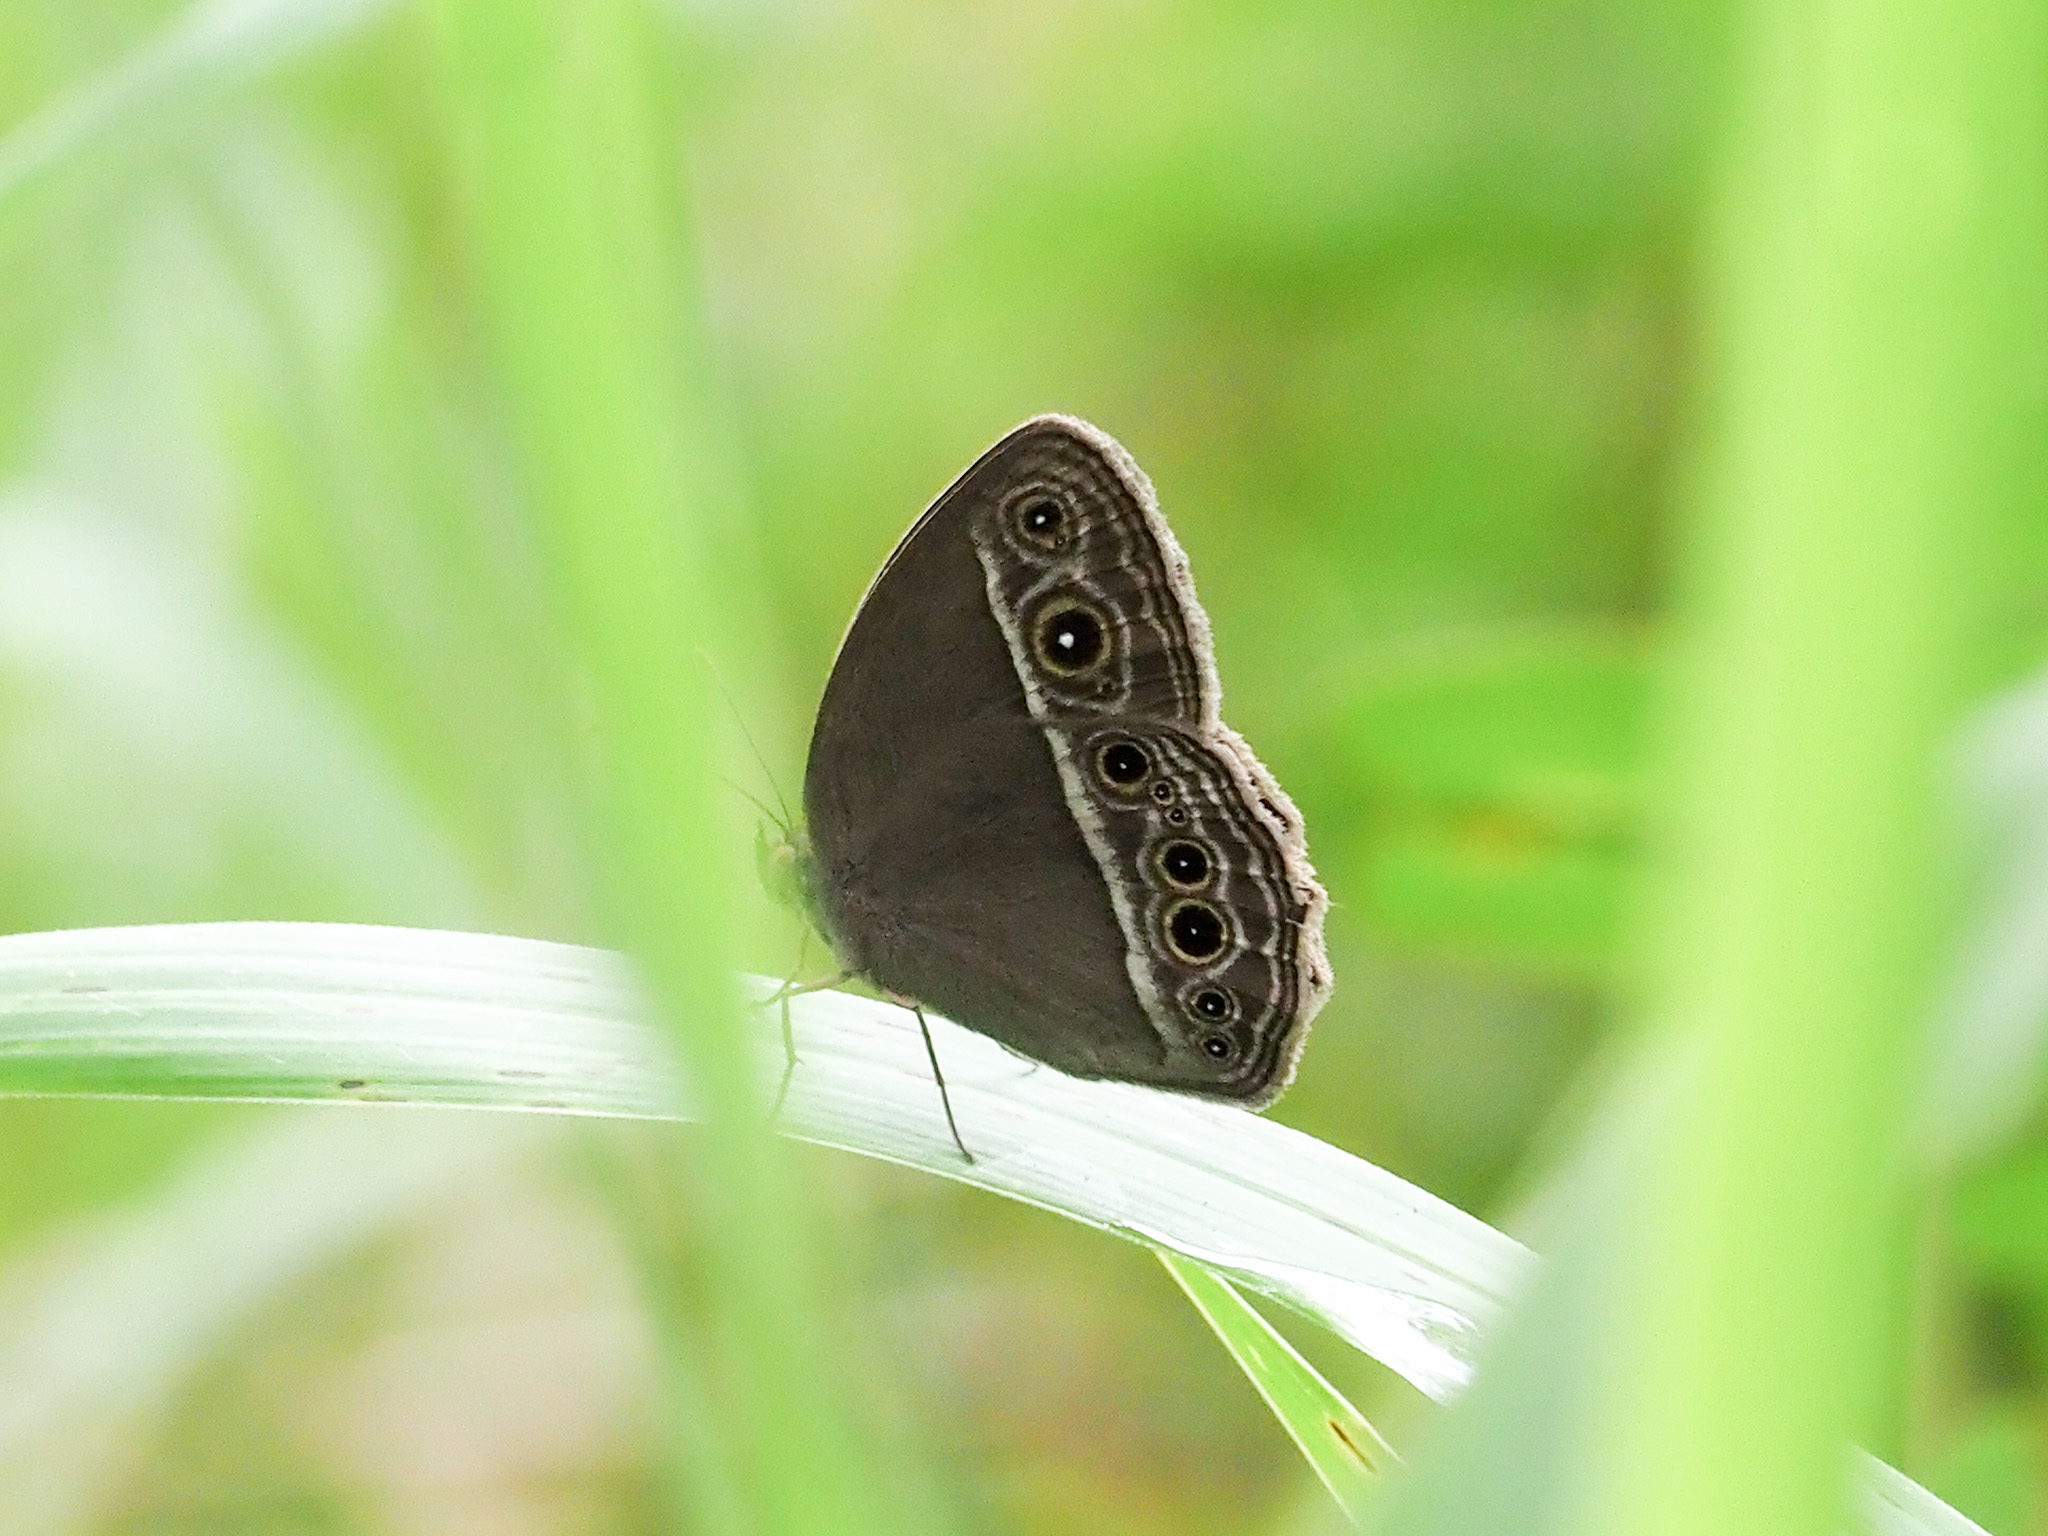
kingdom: Animalia
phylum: Arthropoda
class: Insecta
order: Lepidoptera
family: Nymphalidae
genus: Mycalesis
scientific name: Mycalesis mineus
